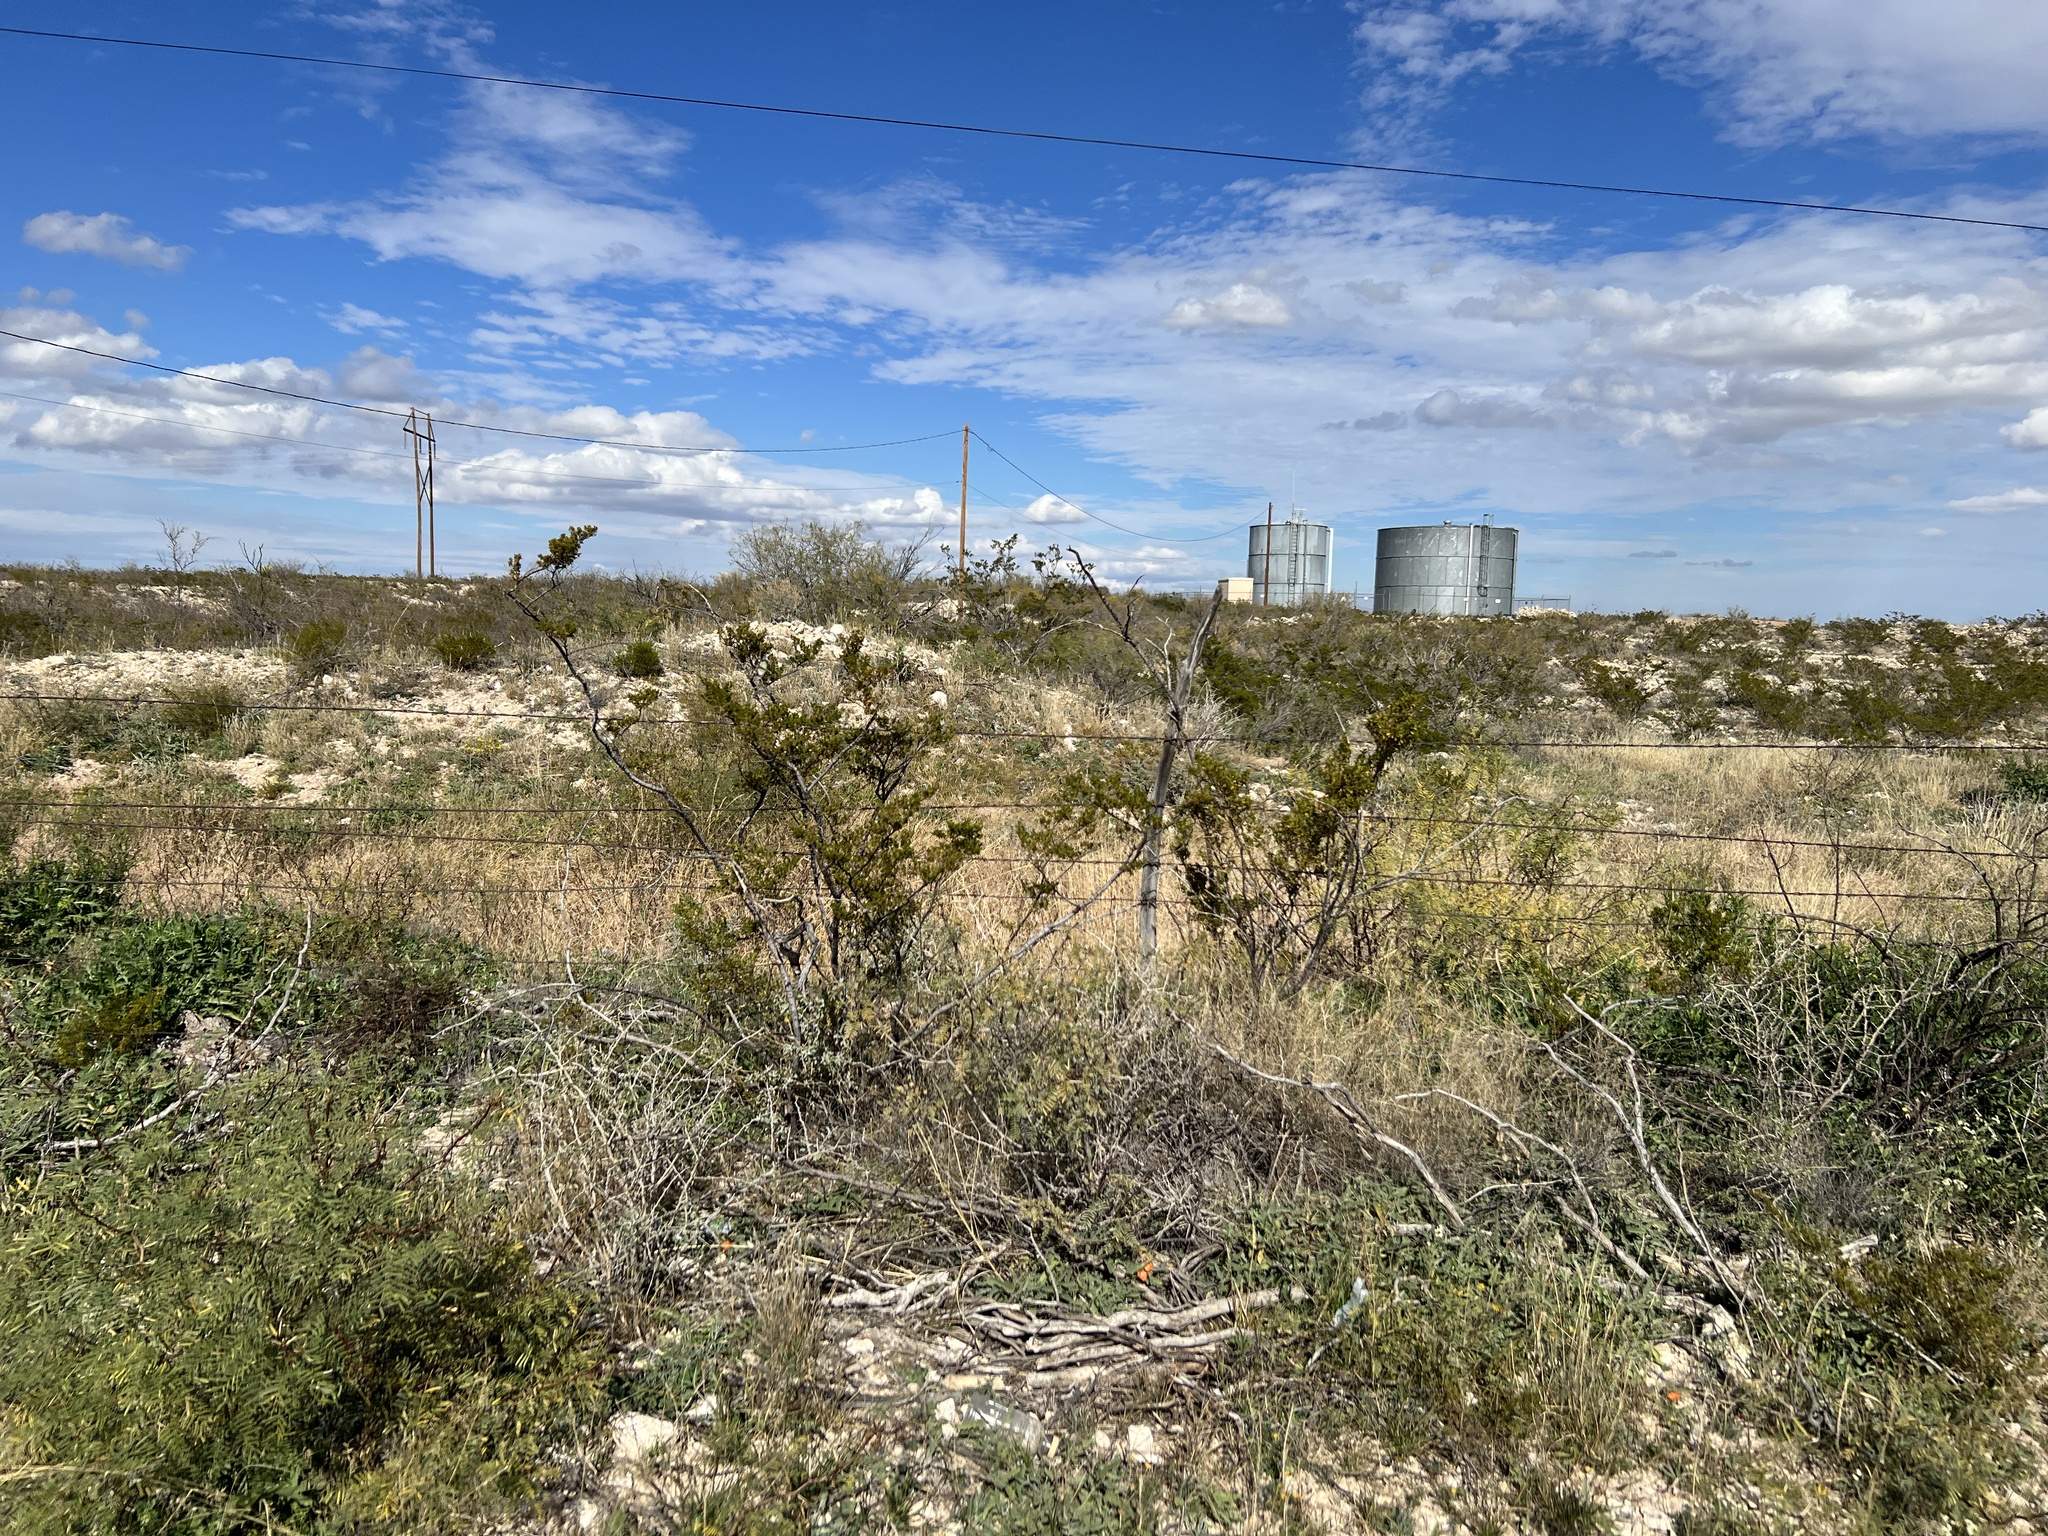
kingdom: Plantae
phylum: Tracheophyta
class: Magnoliopsida
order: Zygophyllales
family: Zygophyllaceae
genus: Larrea
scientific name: Larrea tridentata
